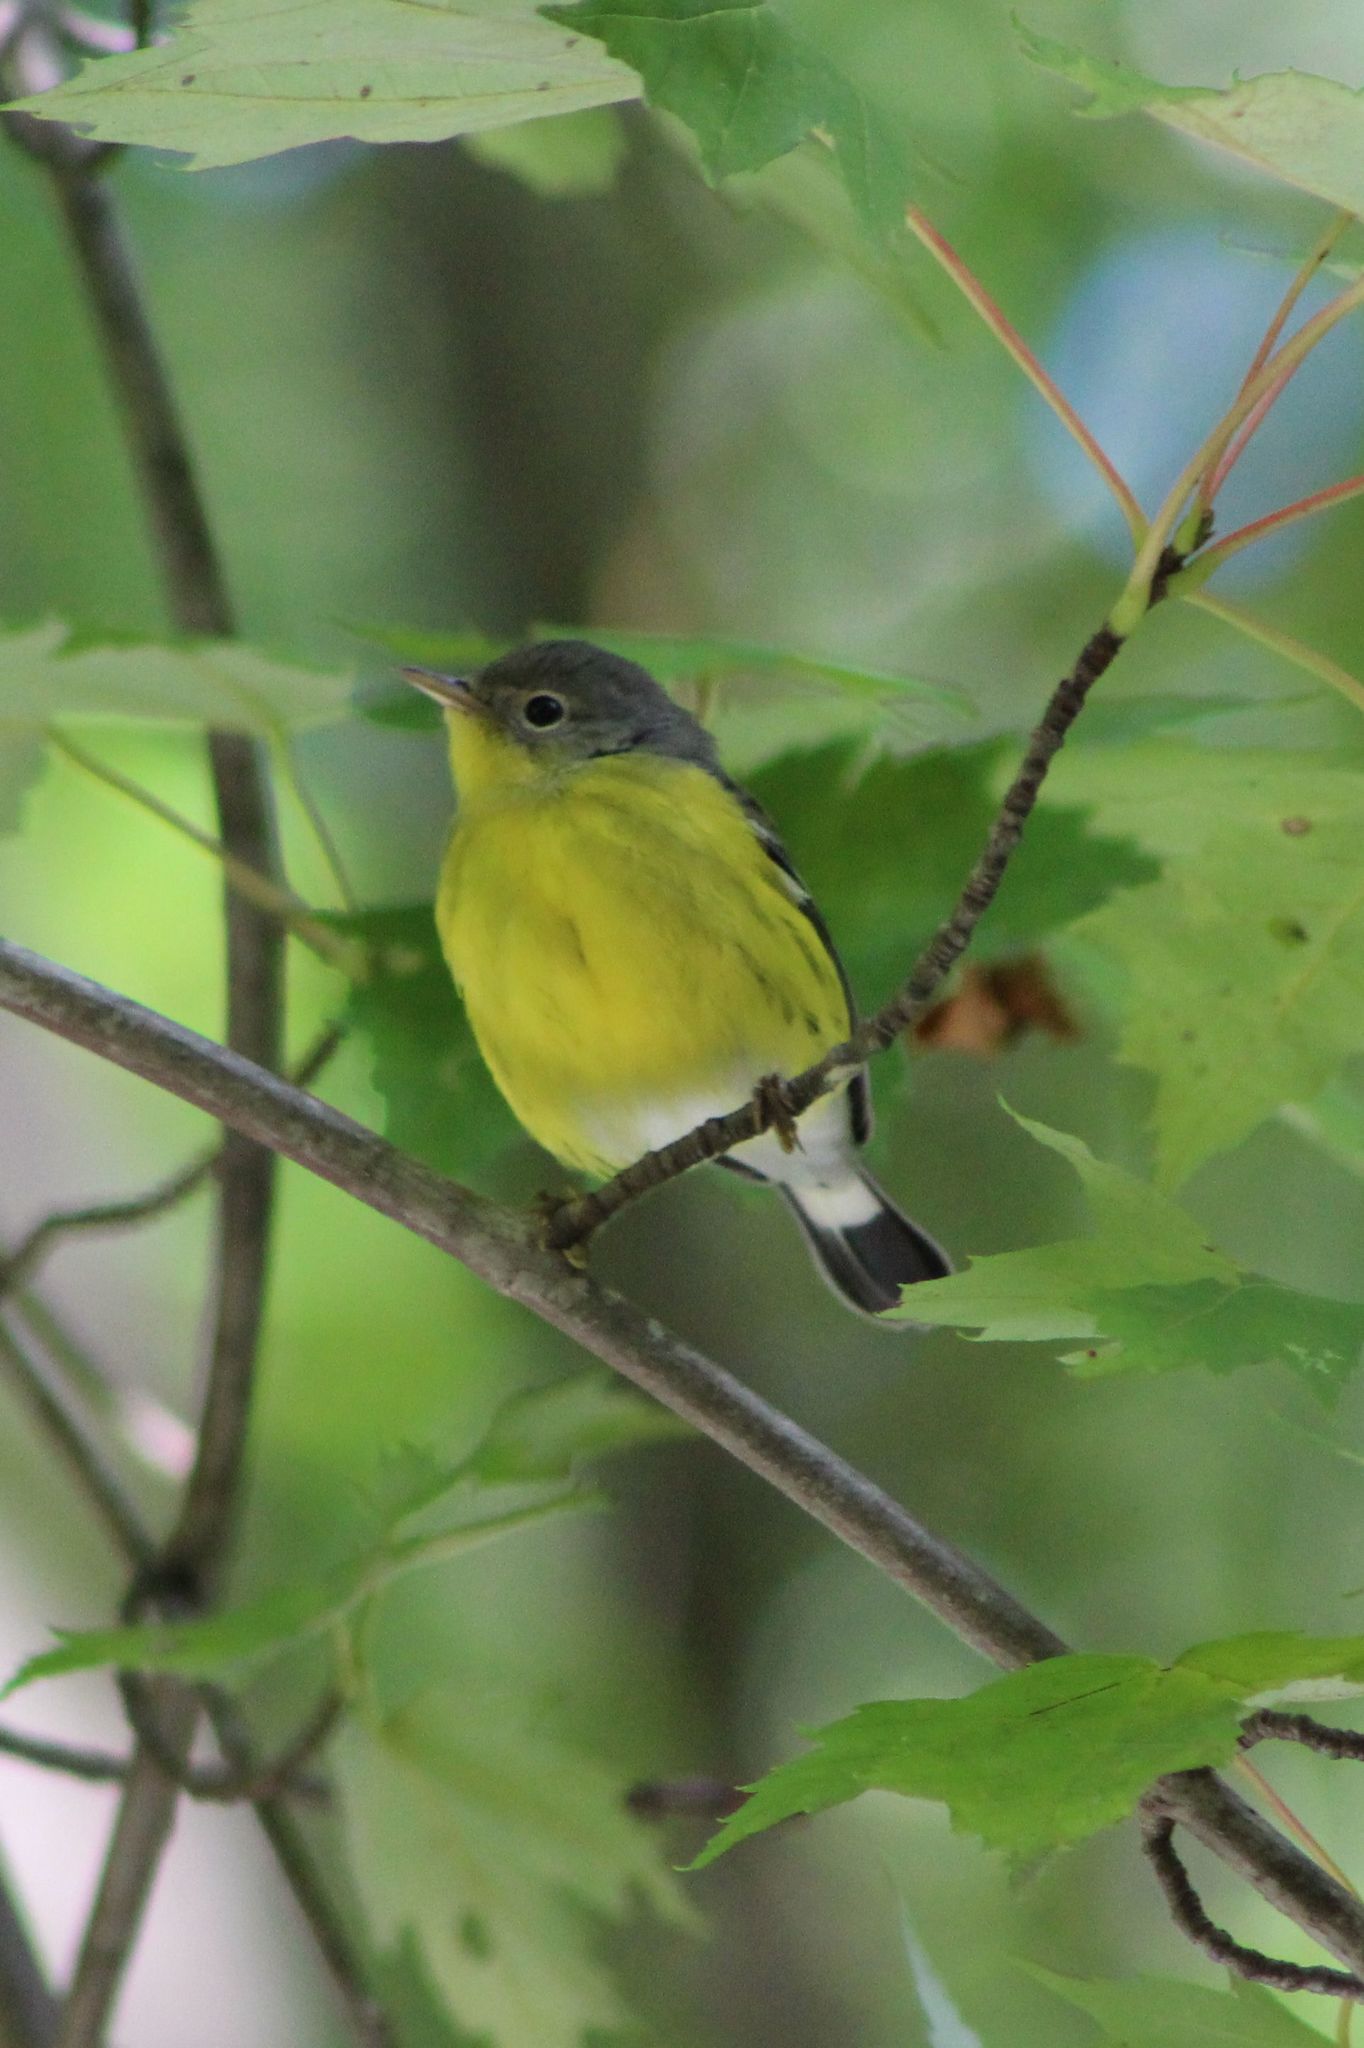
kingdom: Animalia
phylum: Chordata
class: Aves
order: Passeriformes
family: Parulidae
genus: Setophaga
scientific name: Setophaga magnolia
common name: Magnolia warbler
